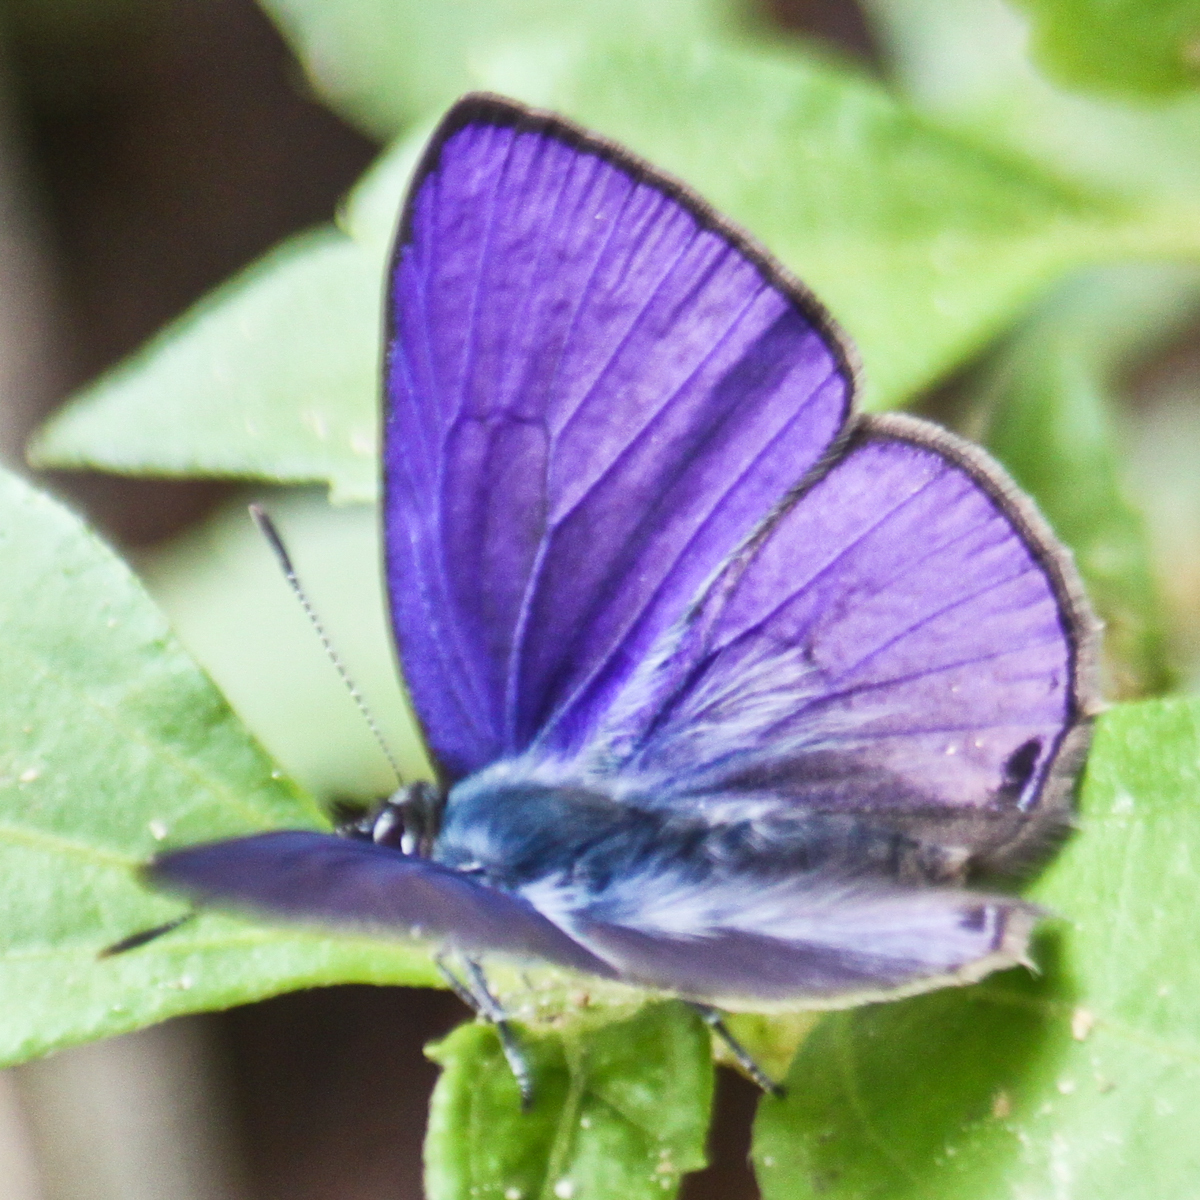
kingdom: Animalia
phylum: Arthropoda
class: Insecta
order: Lepidoptera
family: Lycaenidae
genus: Anthene
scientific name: Anthene emolus
